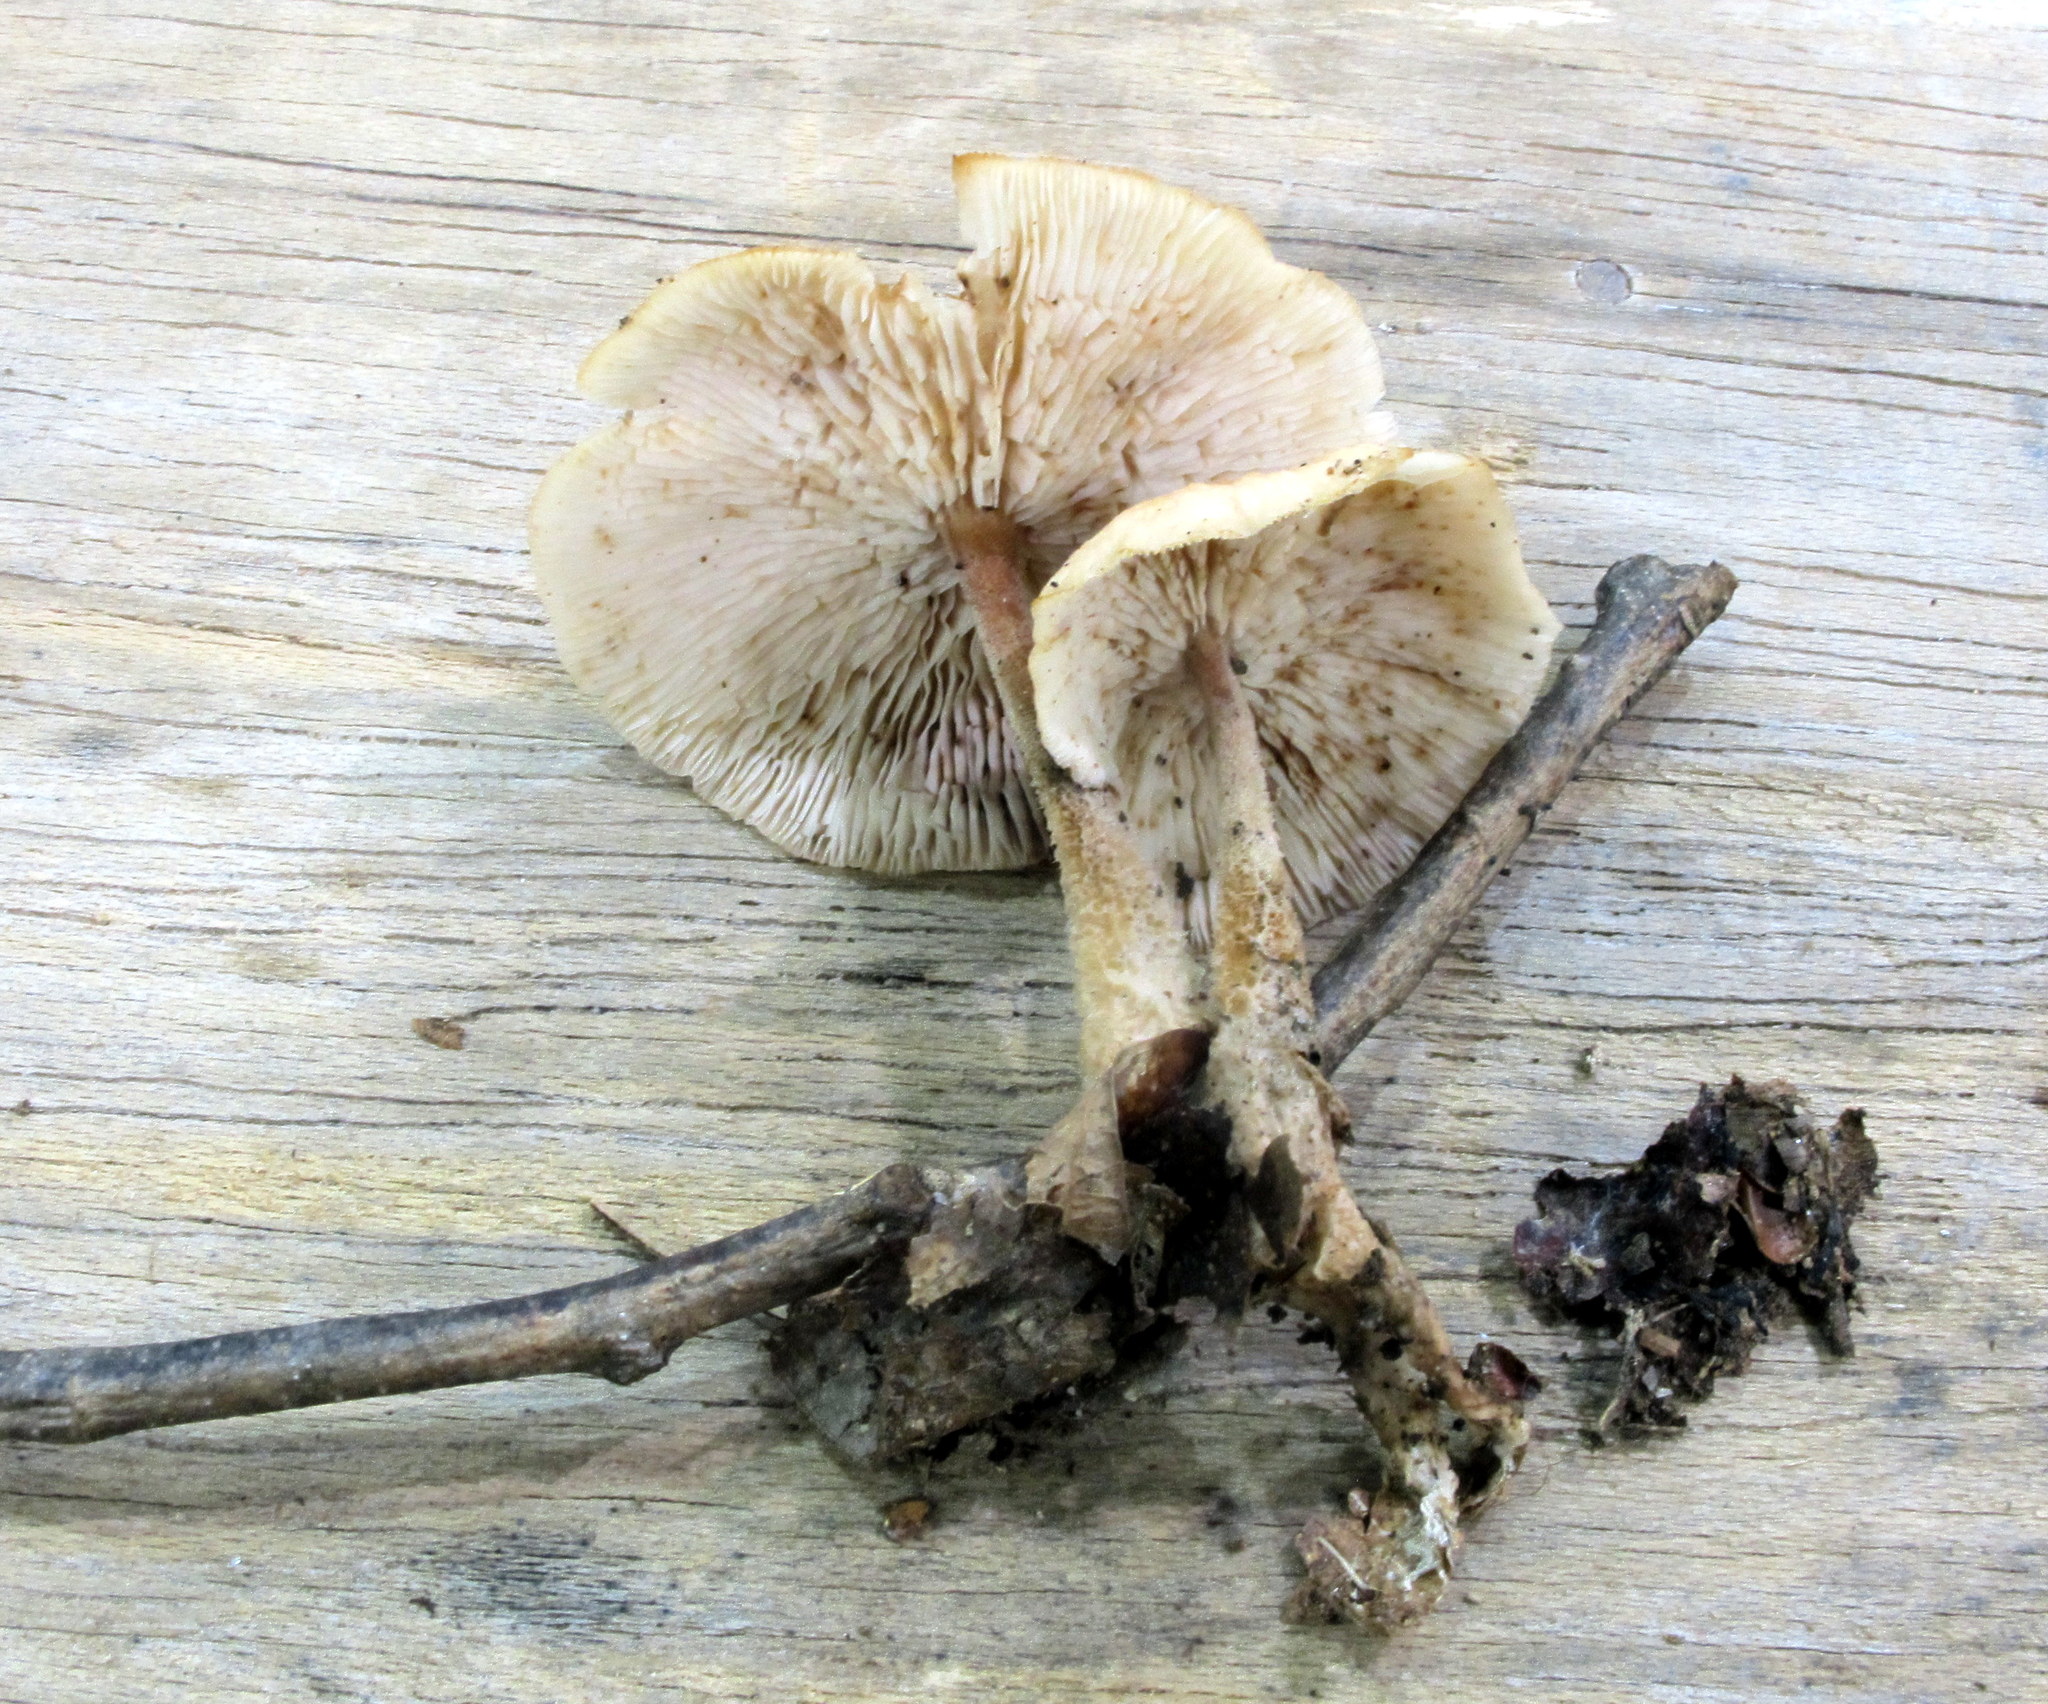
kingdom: Fungi
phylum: Basidiomycota
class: Agaricomycetes
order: Agaricales
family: Omphalotaceae
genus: Gymnopus
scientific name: Gymnopus kauffmanii
